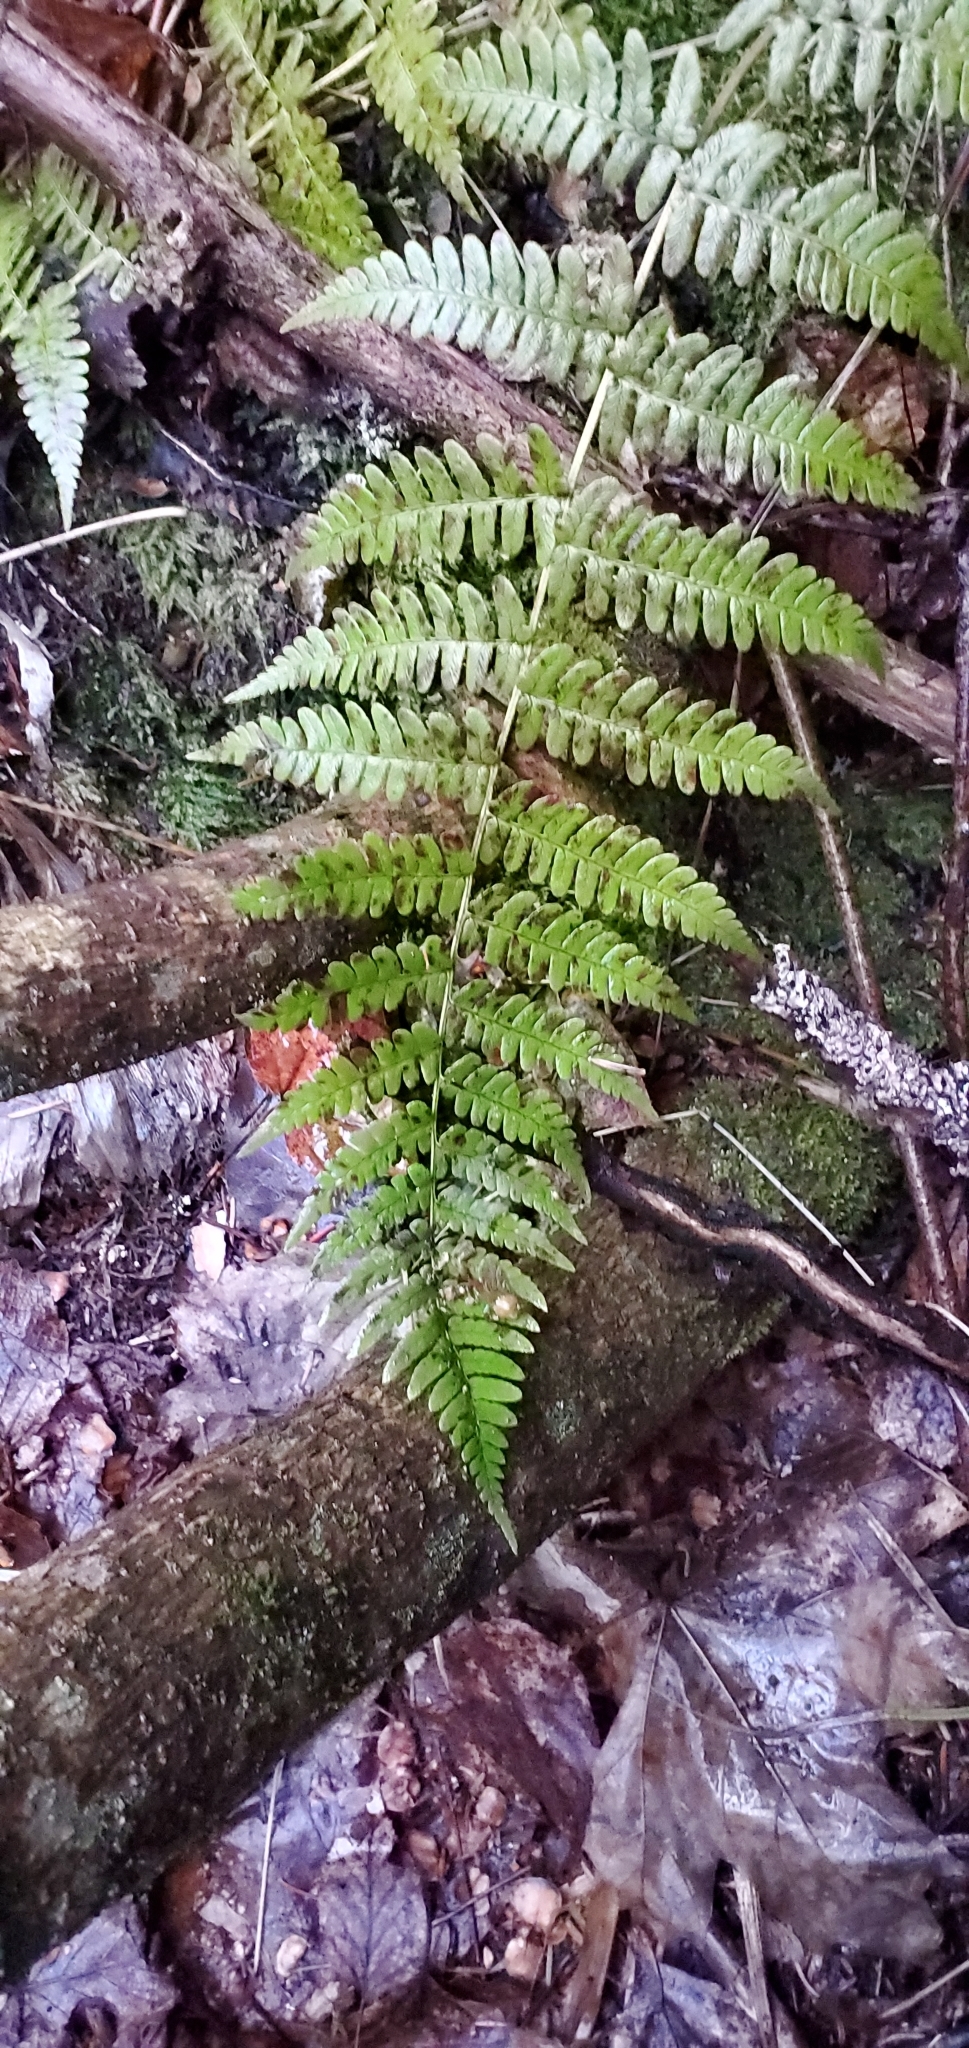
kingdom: Plantae
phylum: Tracheophyta
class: Polypodiopsida
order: Polypodiales
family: Dryopteridaceae
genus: Dryopteris
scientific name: Dryopteris marginalis
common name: Marginal wood fern
